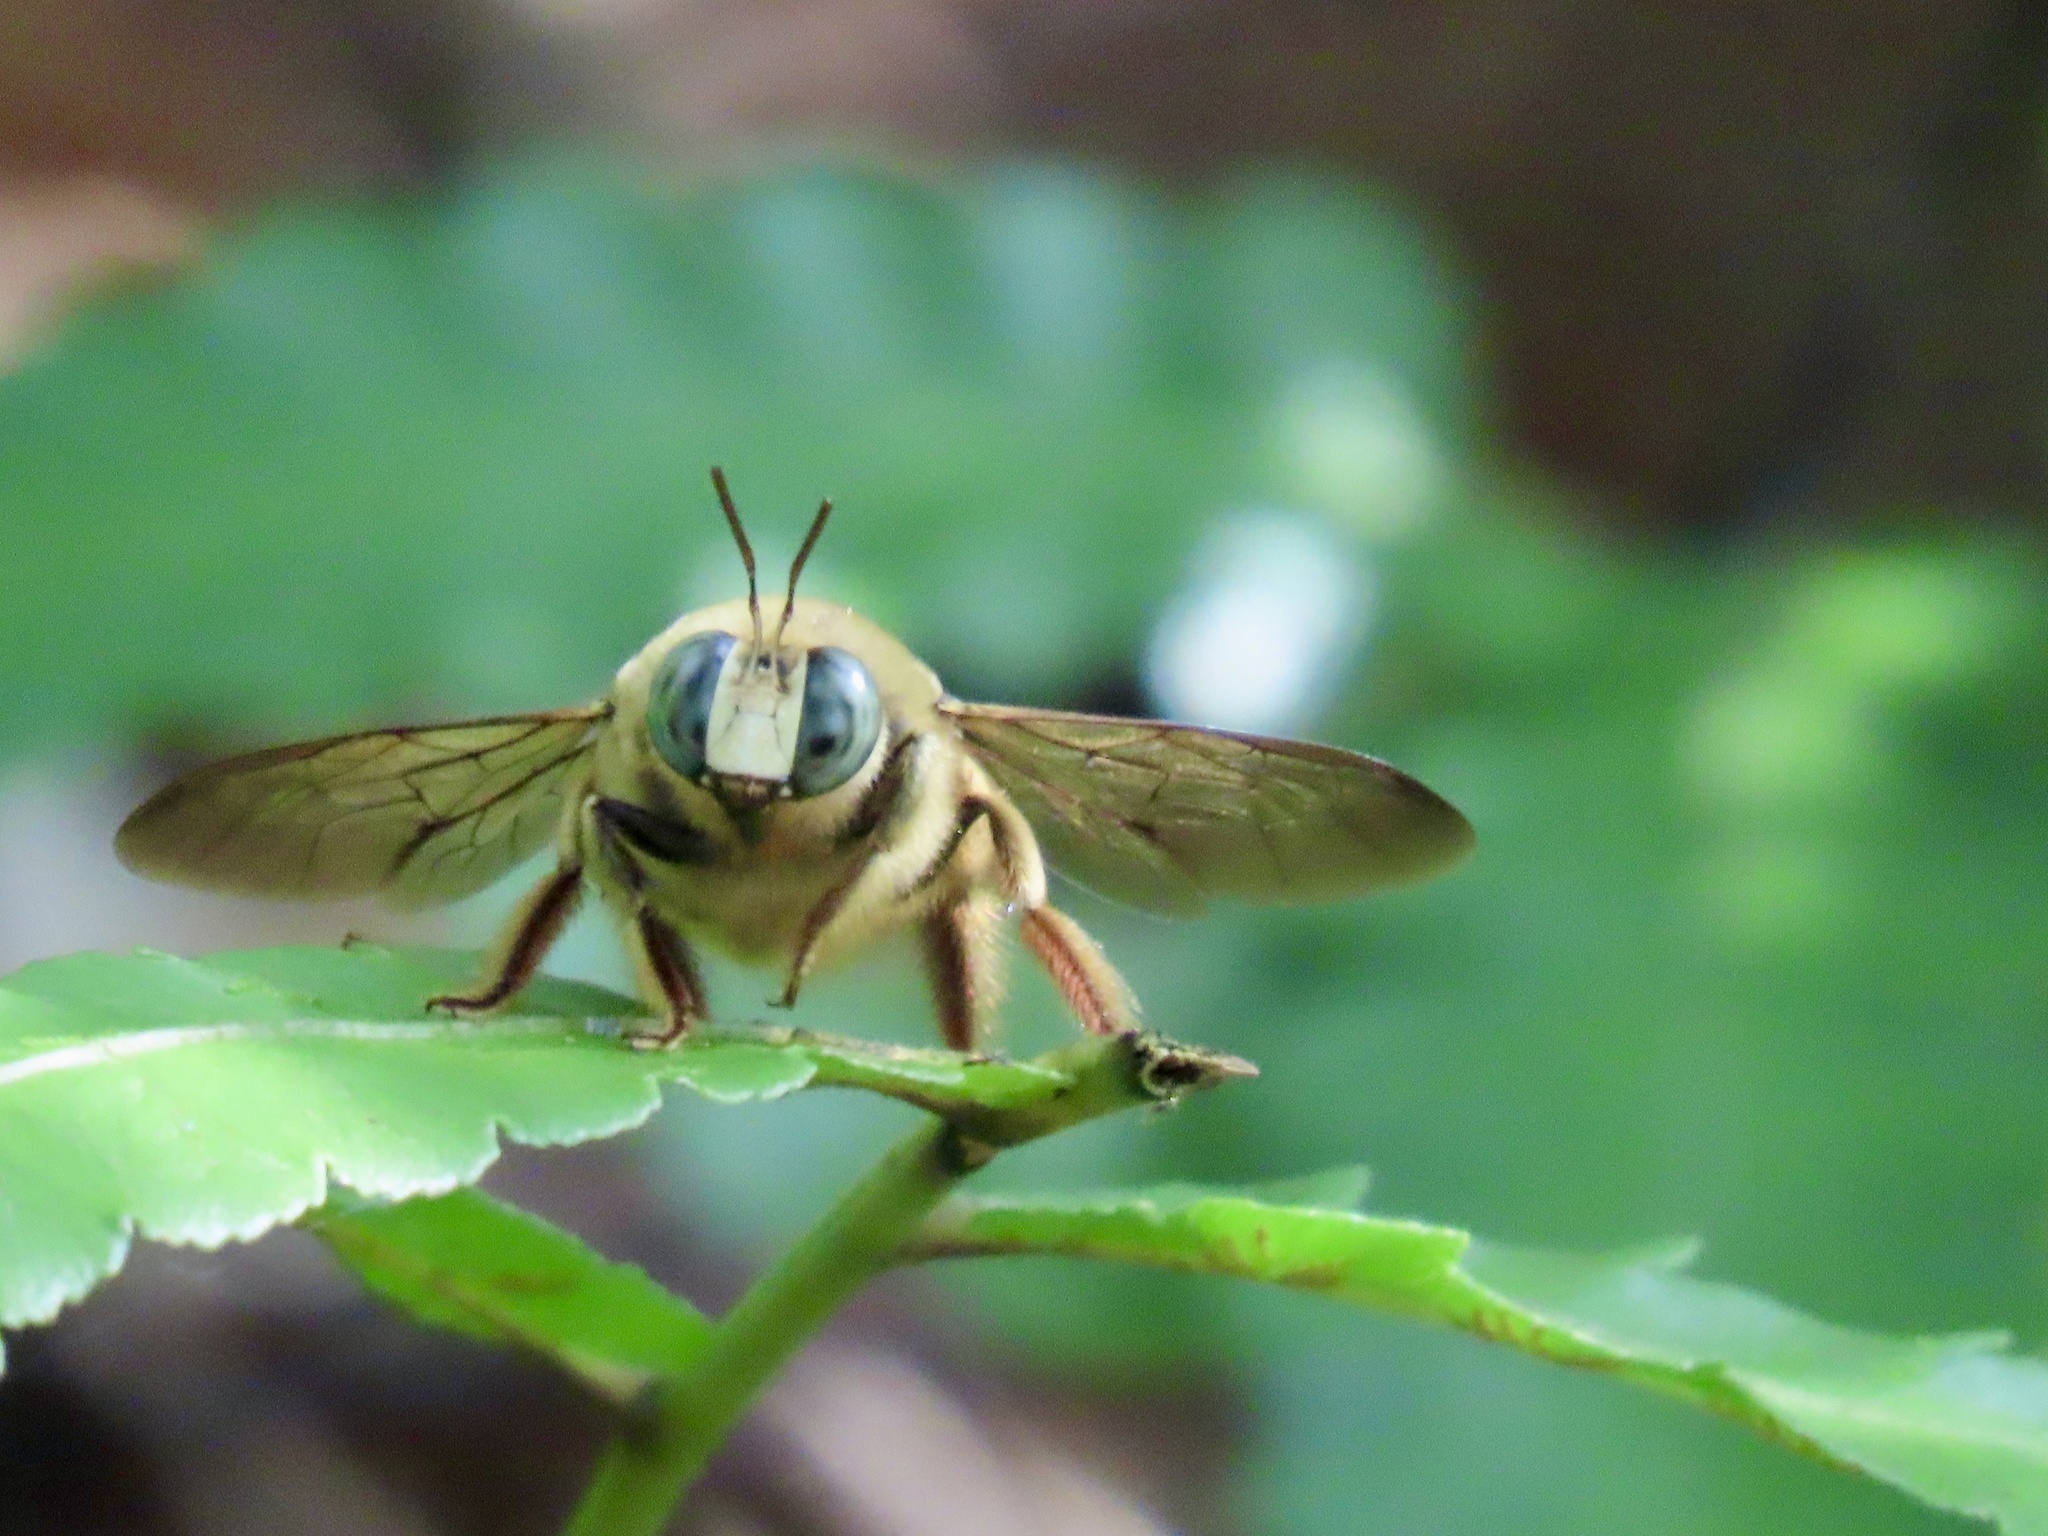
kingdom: Animalia
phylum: Arthropoda
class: Insecta
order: Hymenoptera
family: Apidae
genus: Xylocopa
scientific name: Xylocopa dejeanii
